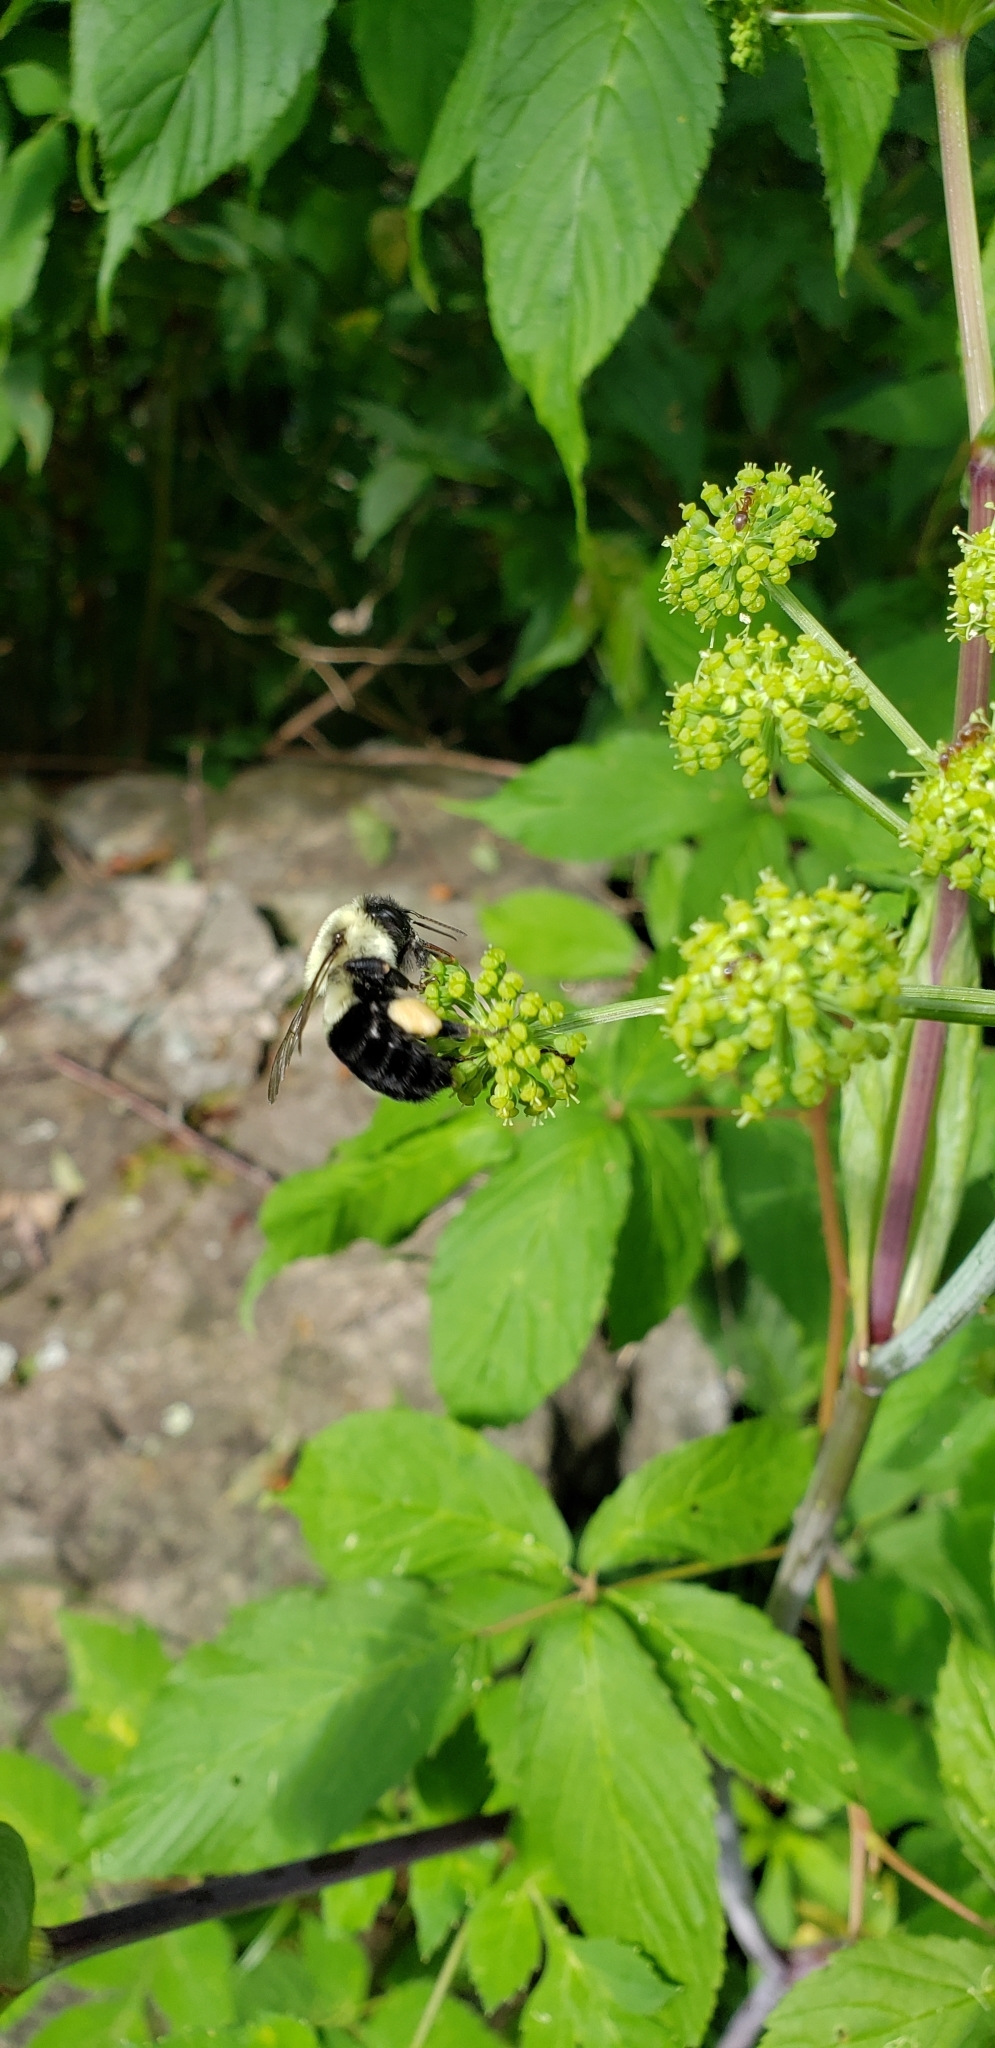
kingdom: Animalia
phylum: Arthropoda
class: Insecta
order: Hymenoptera
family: Apidae
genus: Bombus
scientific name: Bombus impatiens
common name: Common eastern bumble bee
